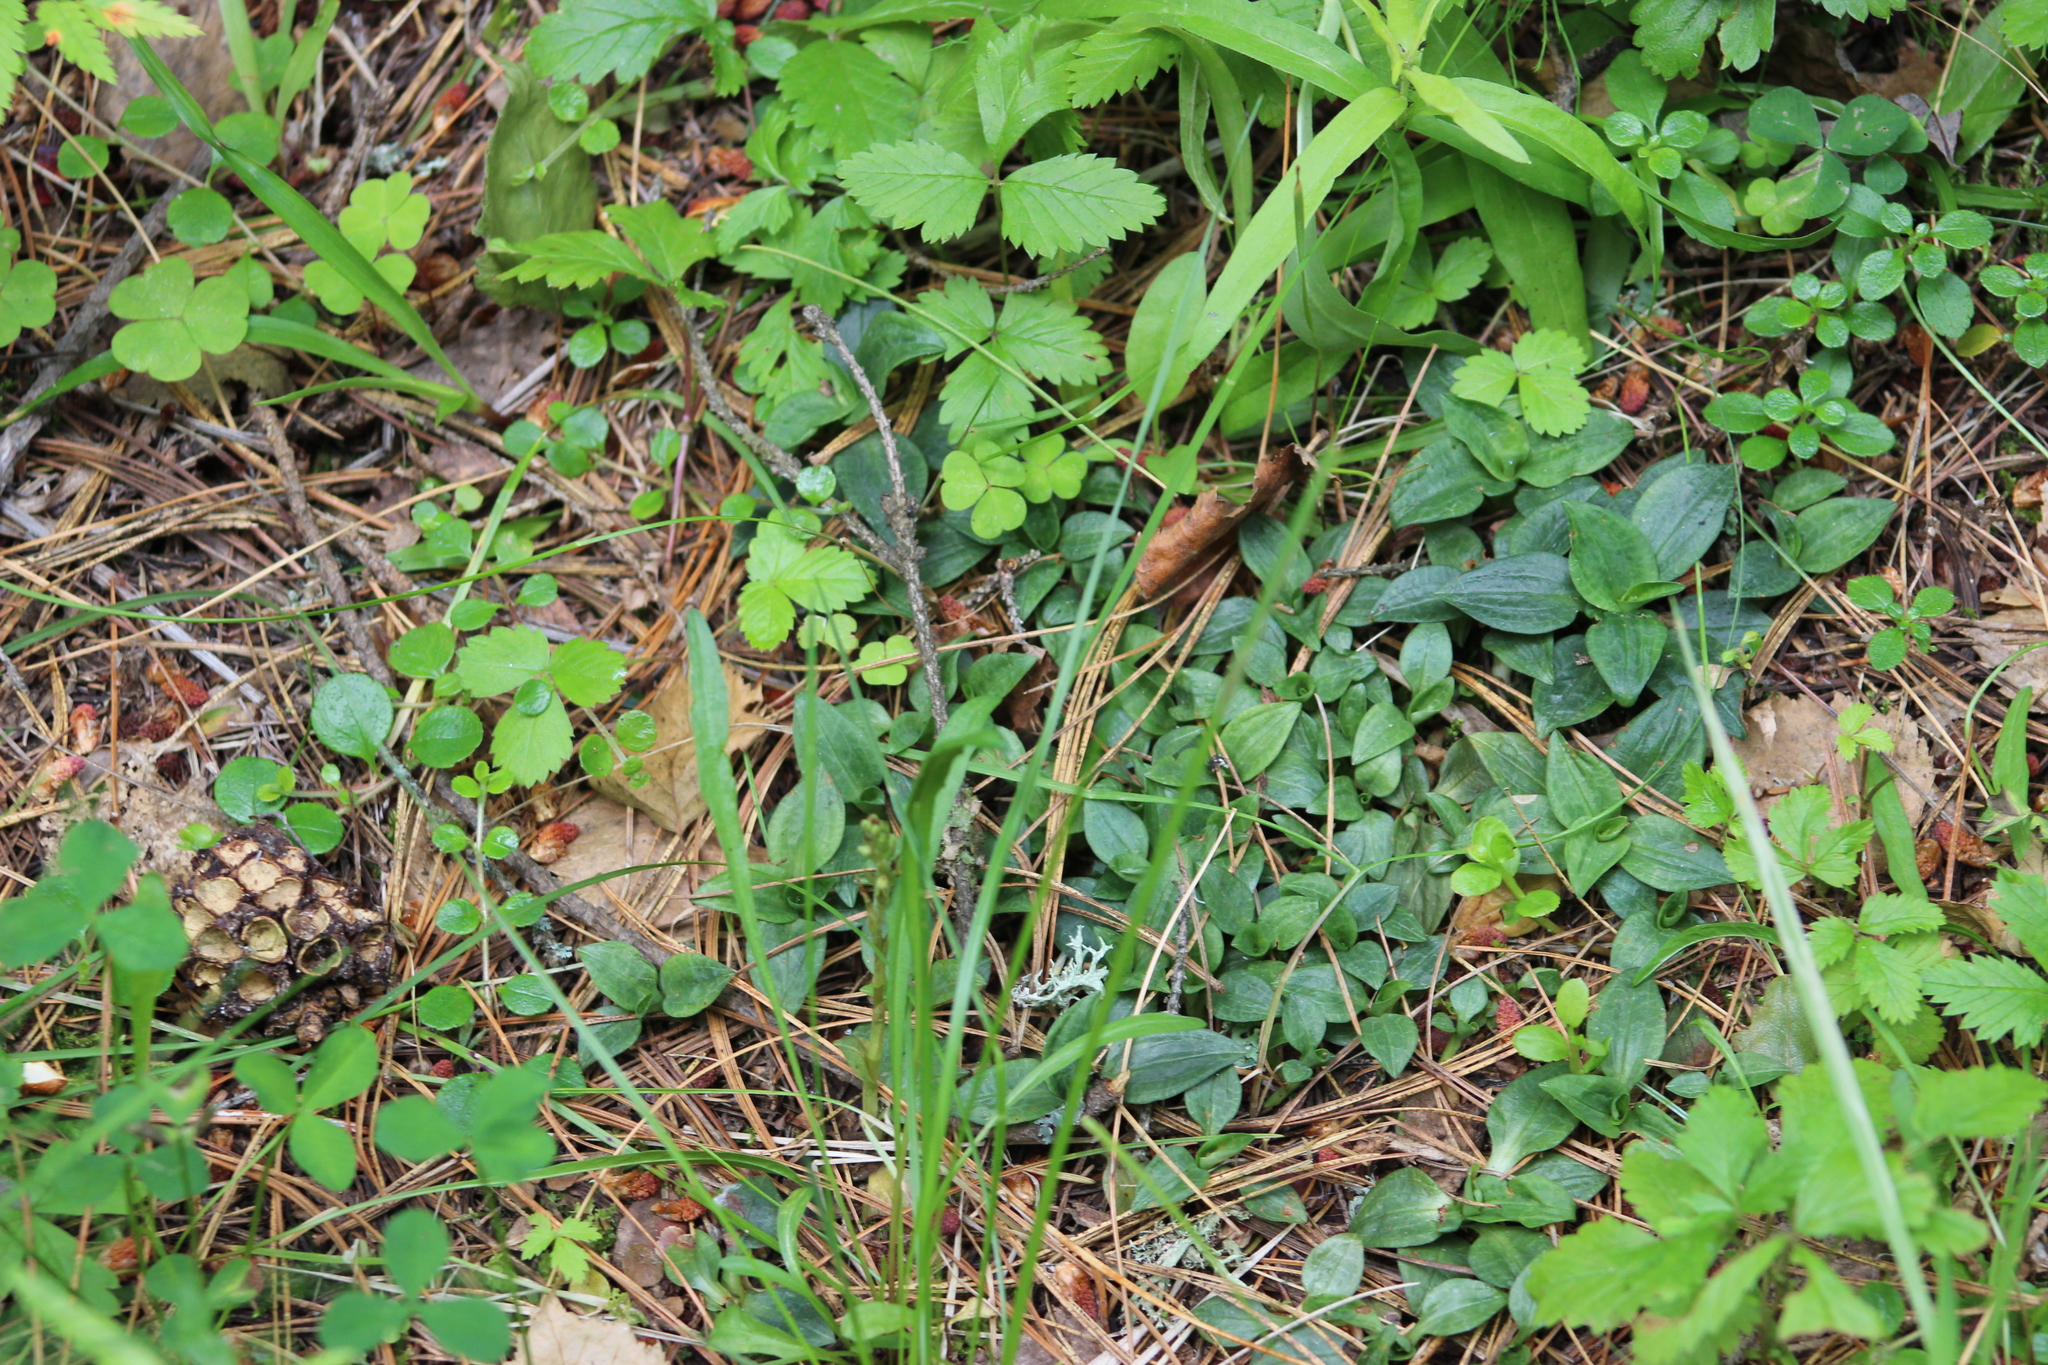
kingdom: Plantae
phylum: Tracheophyta
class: Liliopsida
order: Asparagales
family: Orchidaceae
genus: Goodyera
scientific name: Goodyera repens
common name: Creeping lady's-tresses
